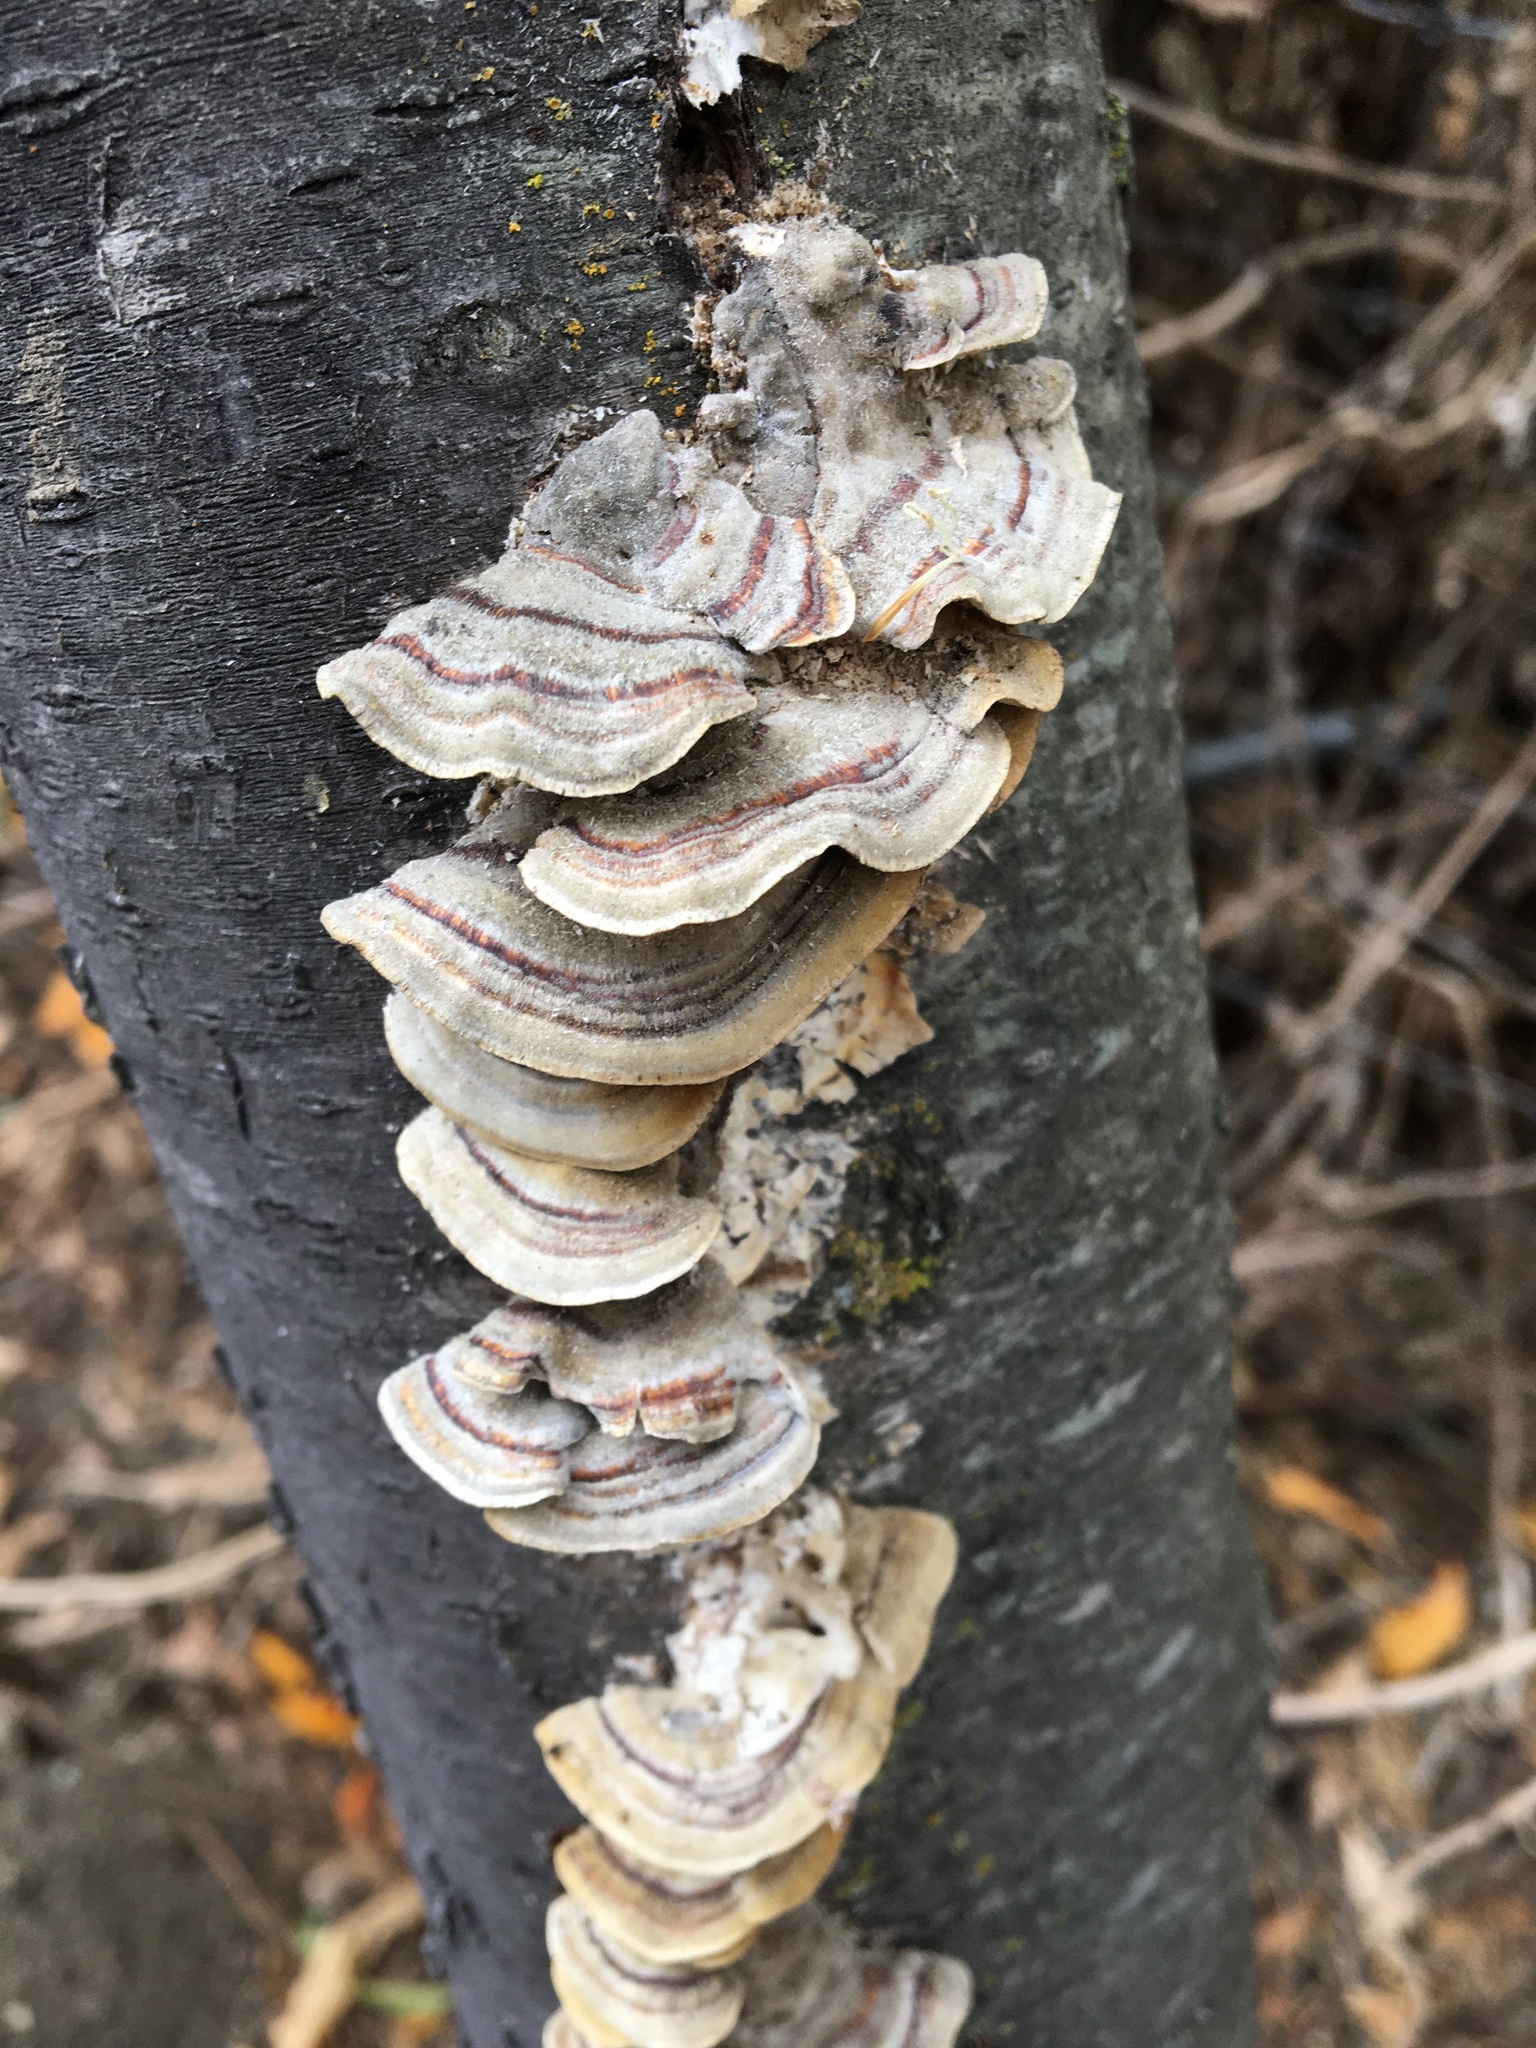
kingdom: Fungi
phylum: Basidiomycota
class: Agaricomycetes
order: Polyporales
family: Polyporaceae
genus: Trametes
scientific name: Trametes versicolor
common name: Turkeytail
